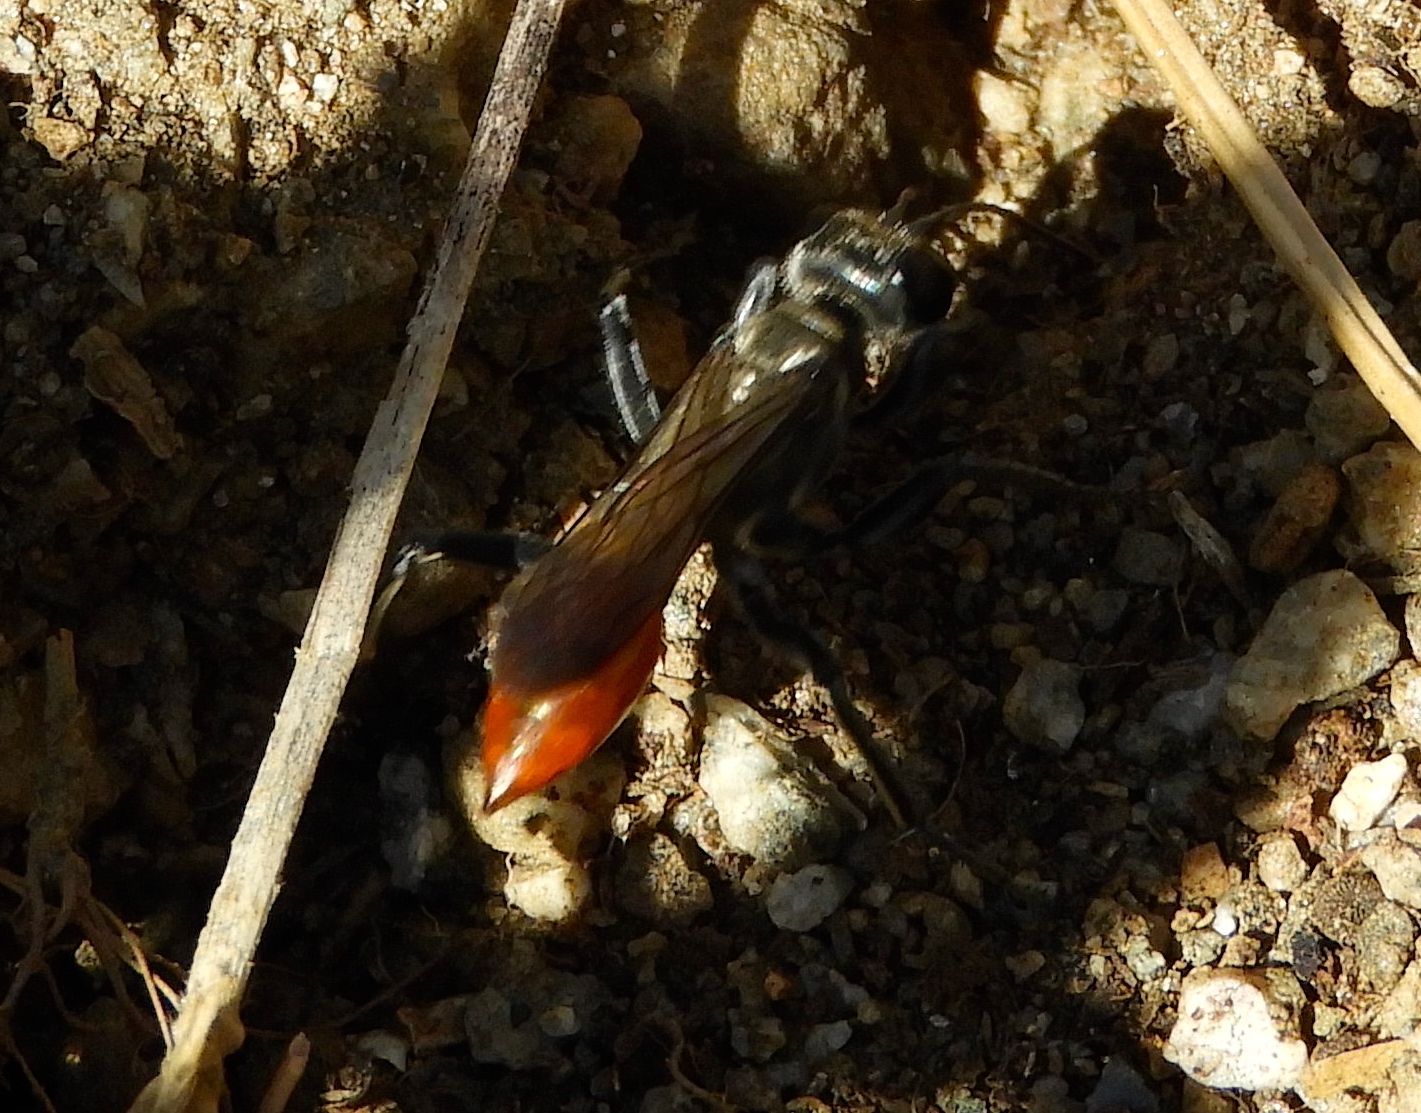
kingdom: Animalia
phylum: Arthropoda
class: Insecta
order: Hymenoptera
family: Sphecidae
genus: Prionyx
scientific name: Prionyx
